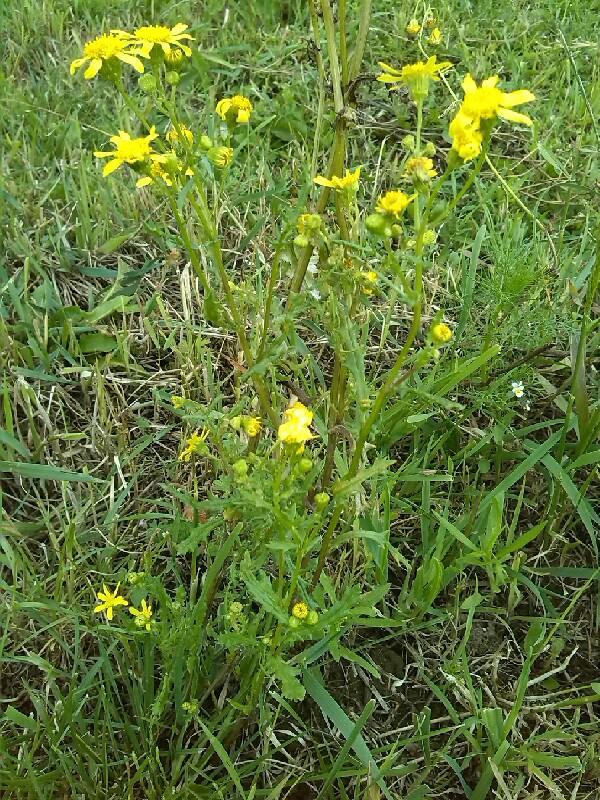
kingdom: Plantae
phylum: Tracheophyta
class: Magnoliopsida
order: Asterales
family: Asteraceae
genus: Senecio
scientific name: Senecio vernalis
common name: Eastern groundsel
